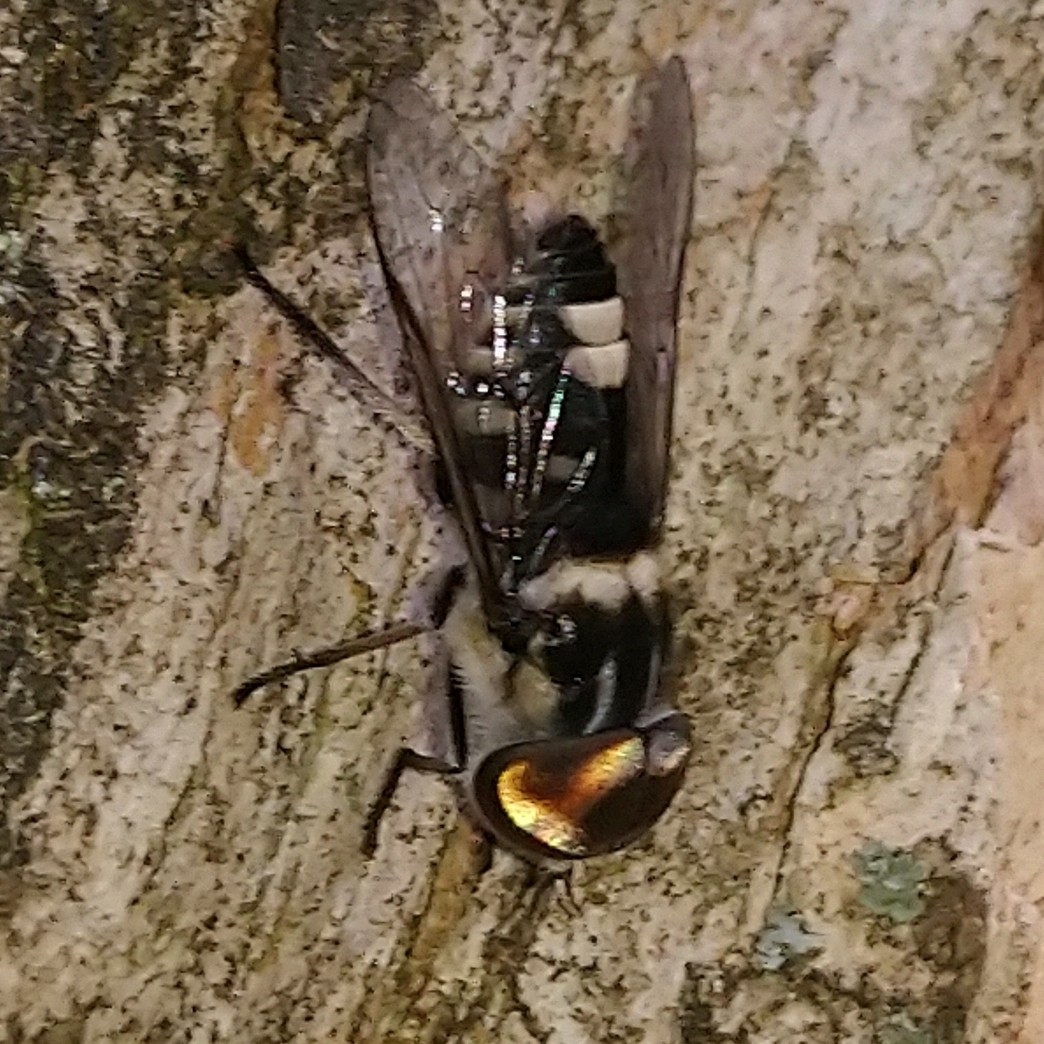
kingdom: Animalia
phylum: Arthropoda
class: Insecta
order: Diptera
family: Tabanidae
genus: Tabanus
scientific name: Tabanus insignis
